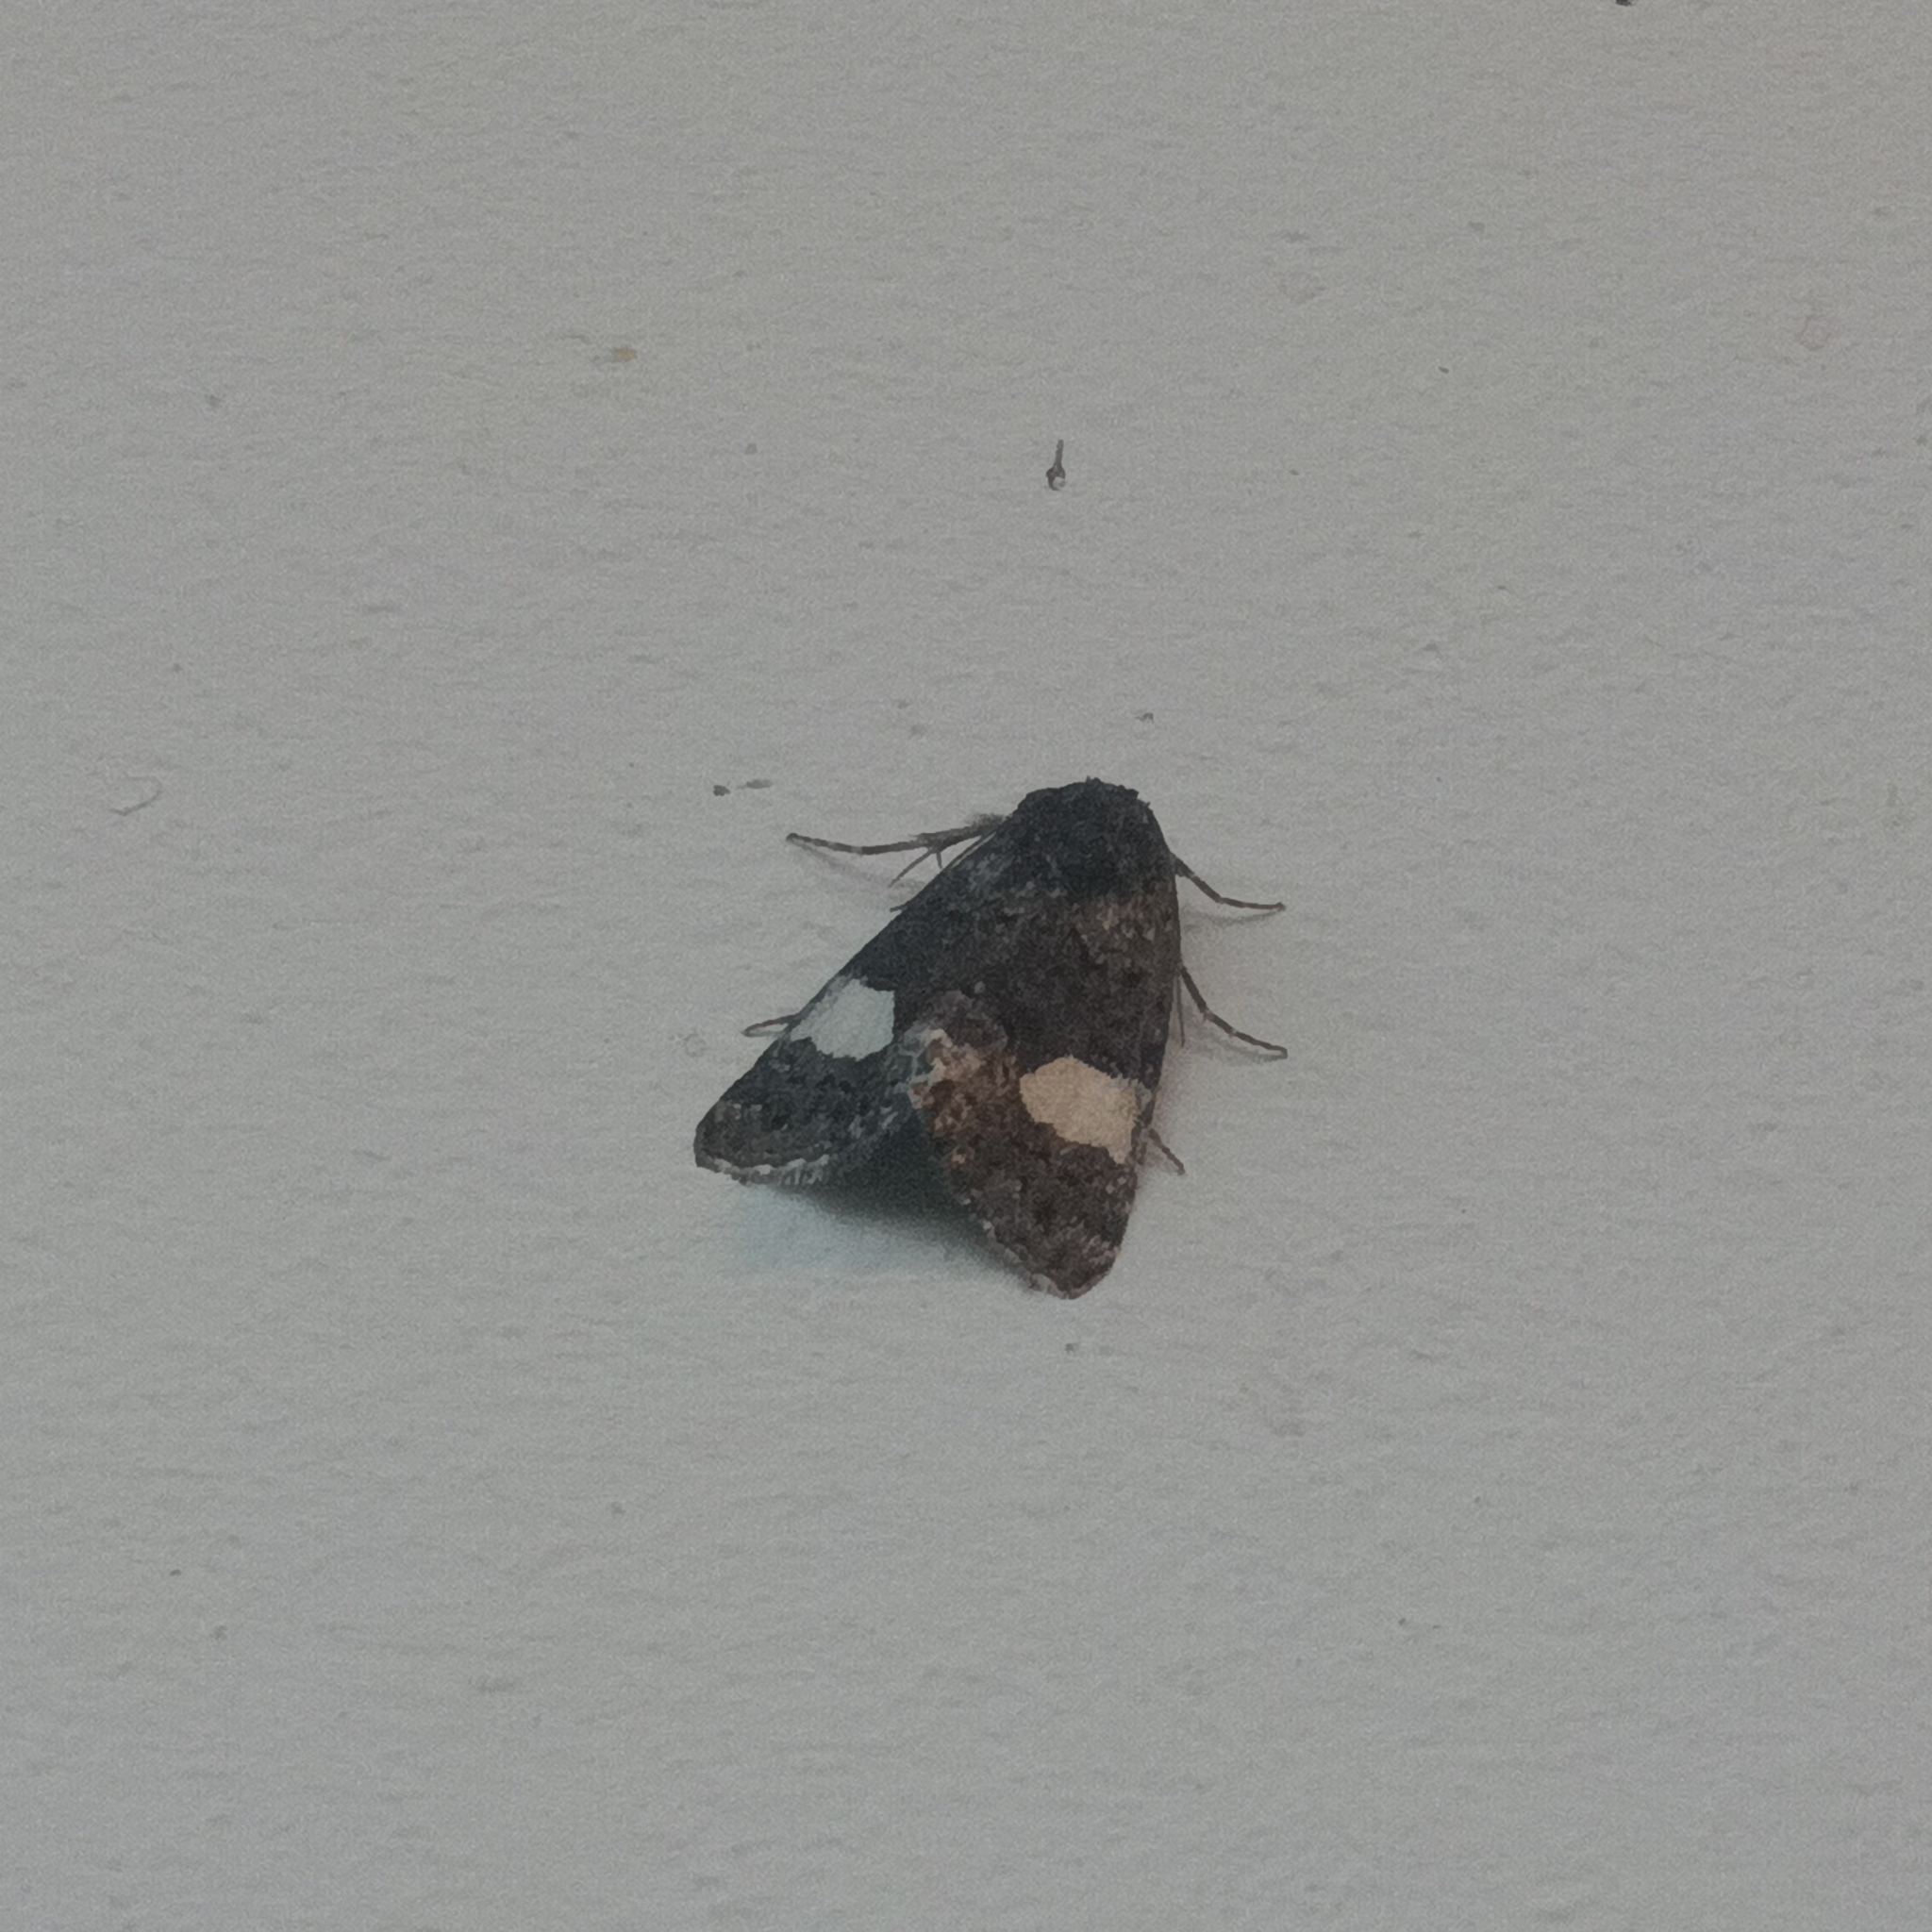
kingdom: Animalia
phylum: Arthropoda
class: Insecta
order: Lepidoptera
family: Erebidae
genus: Tyta
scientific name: Tyta luctuosa
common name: Four-spotted
